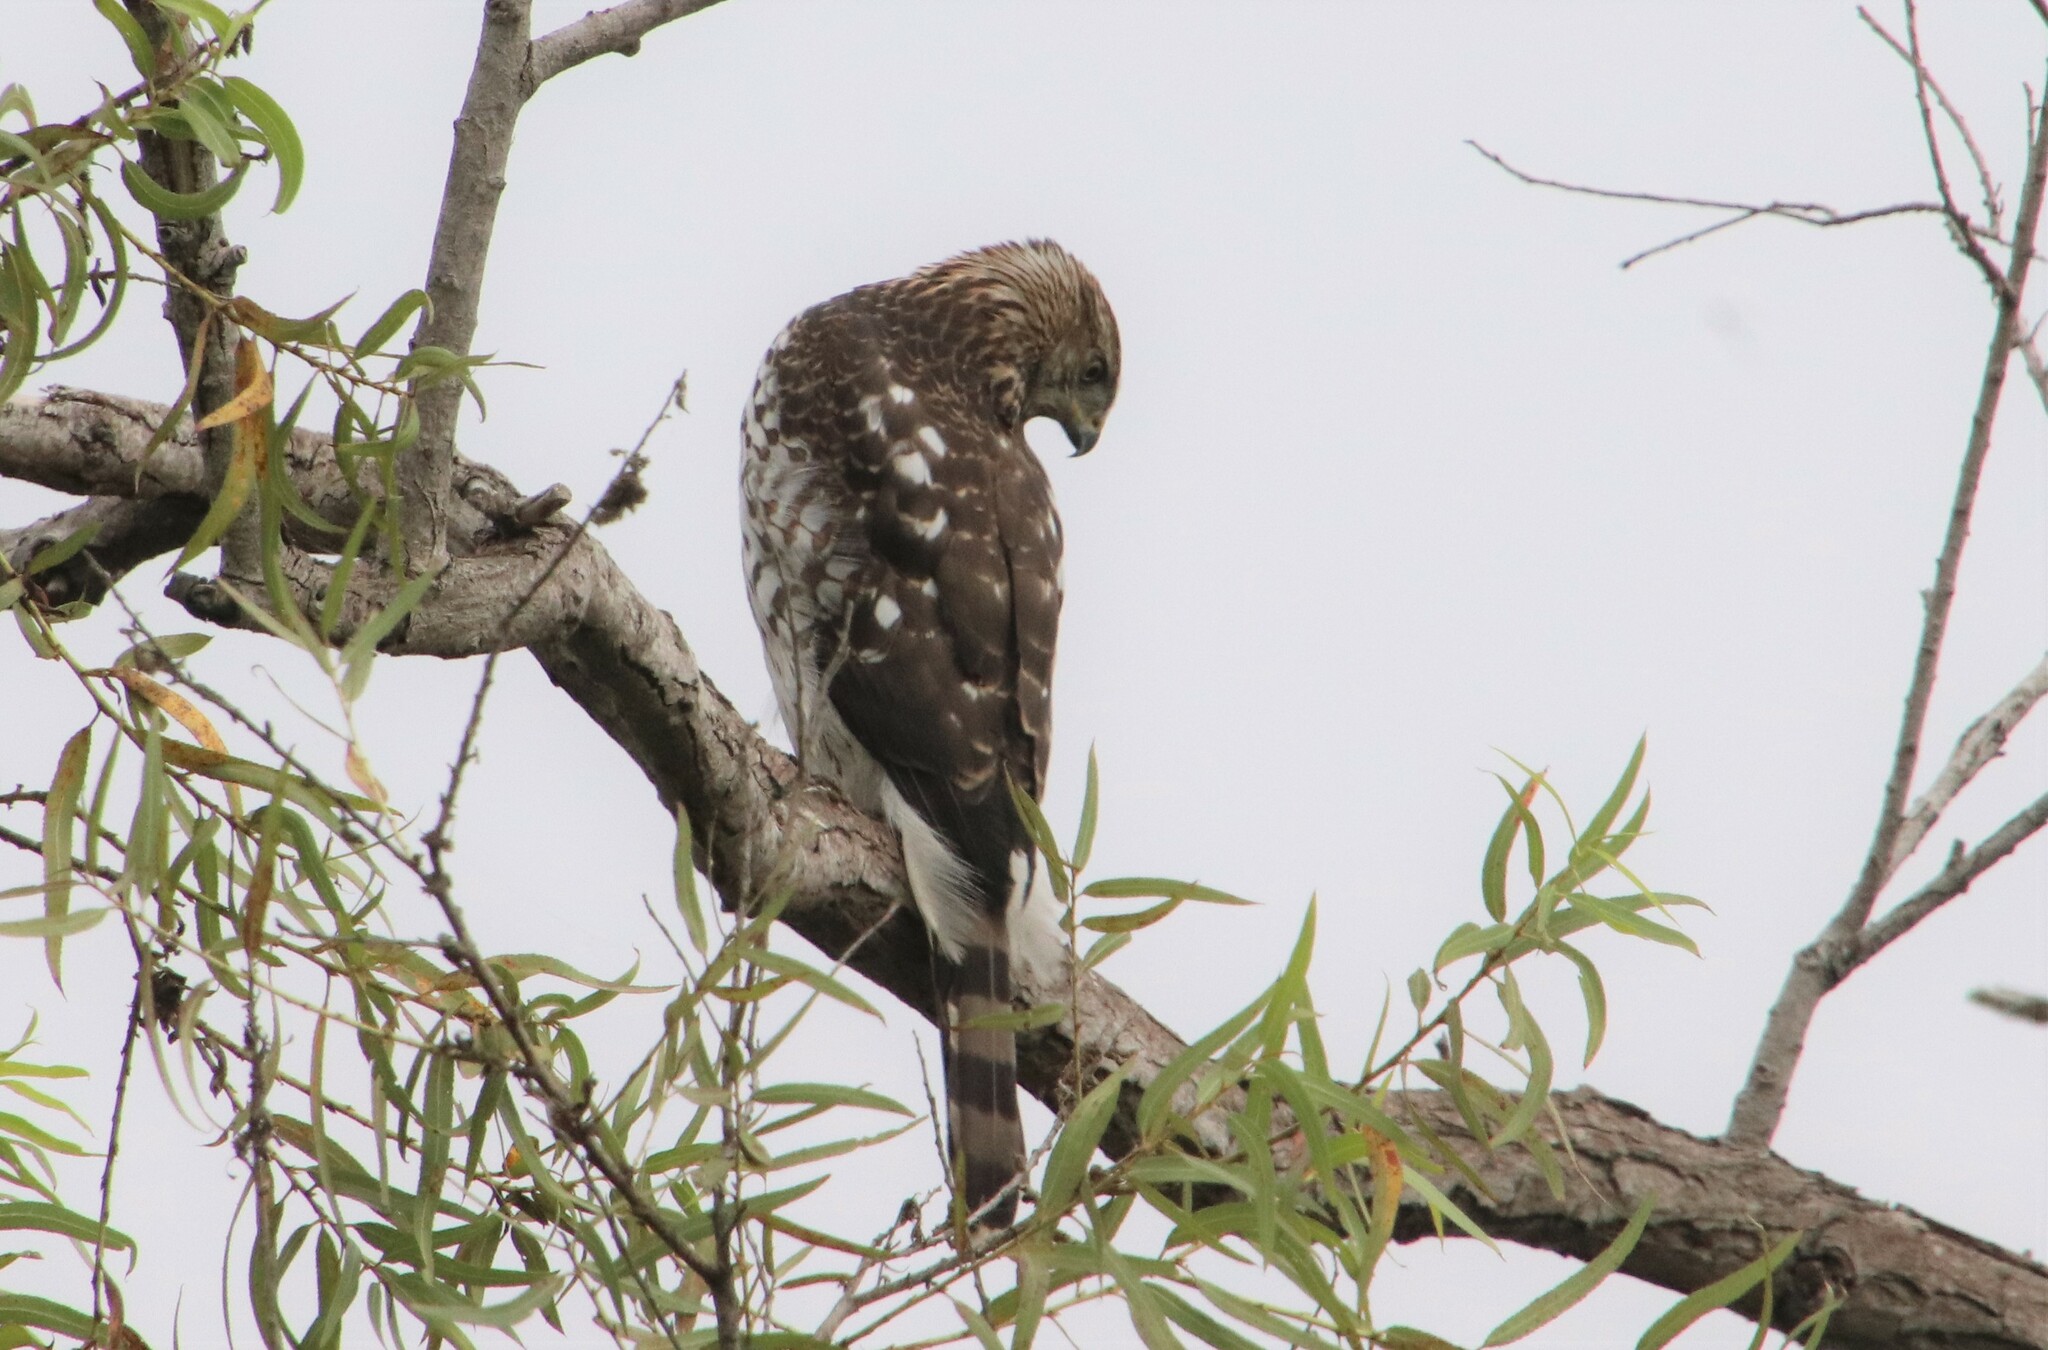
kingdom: Animalia
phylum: Chordata
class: Aves
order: Accipitriformes
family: Accipitridae
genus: Accipiter
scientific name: Accipiter cooperii
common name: Cooper's hawk
